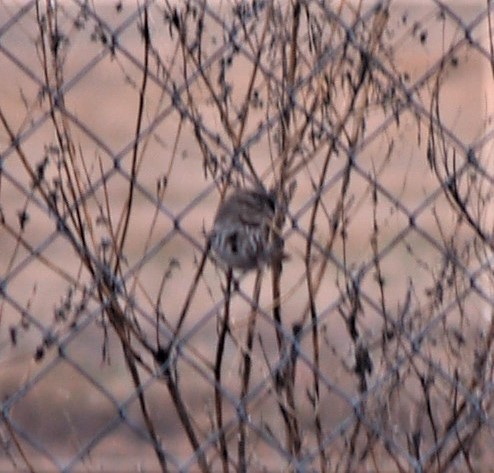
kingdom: Animalia
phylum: Chordata
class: Aves
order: Passeriformes
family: Passerellidae
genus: Melospiza
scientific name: Melospiza melodia
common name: Song sparrow
